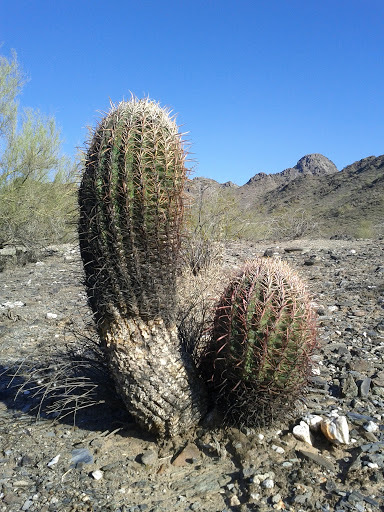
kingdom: Plantae
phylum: Tracheophyta
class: Magnoliopsida
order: Caryophyllales
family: Cactaceae
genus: Ferocactus
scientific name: Ferocactus cylindraceus
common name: California barrel cactus
